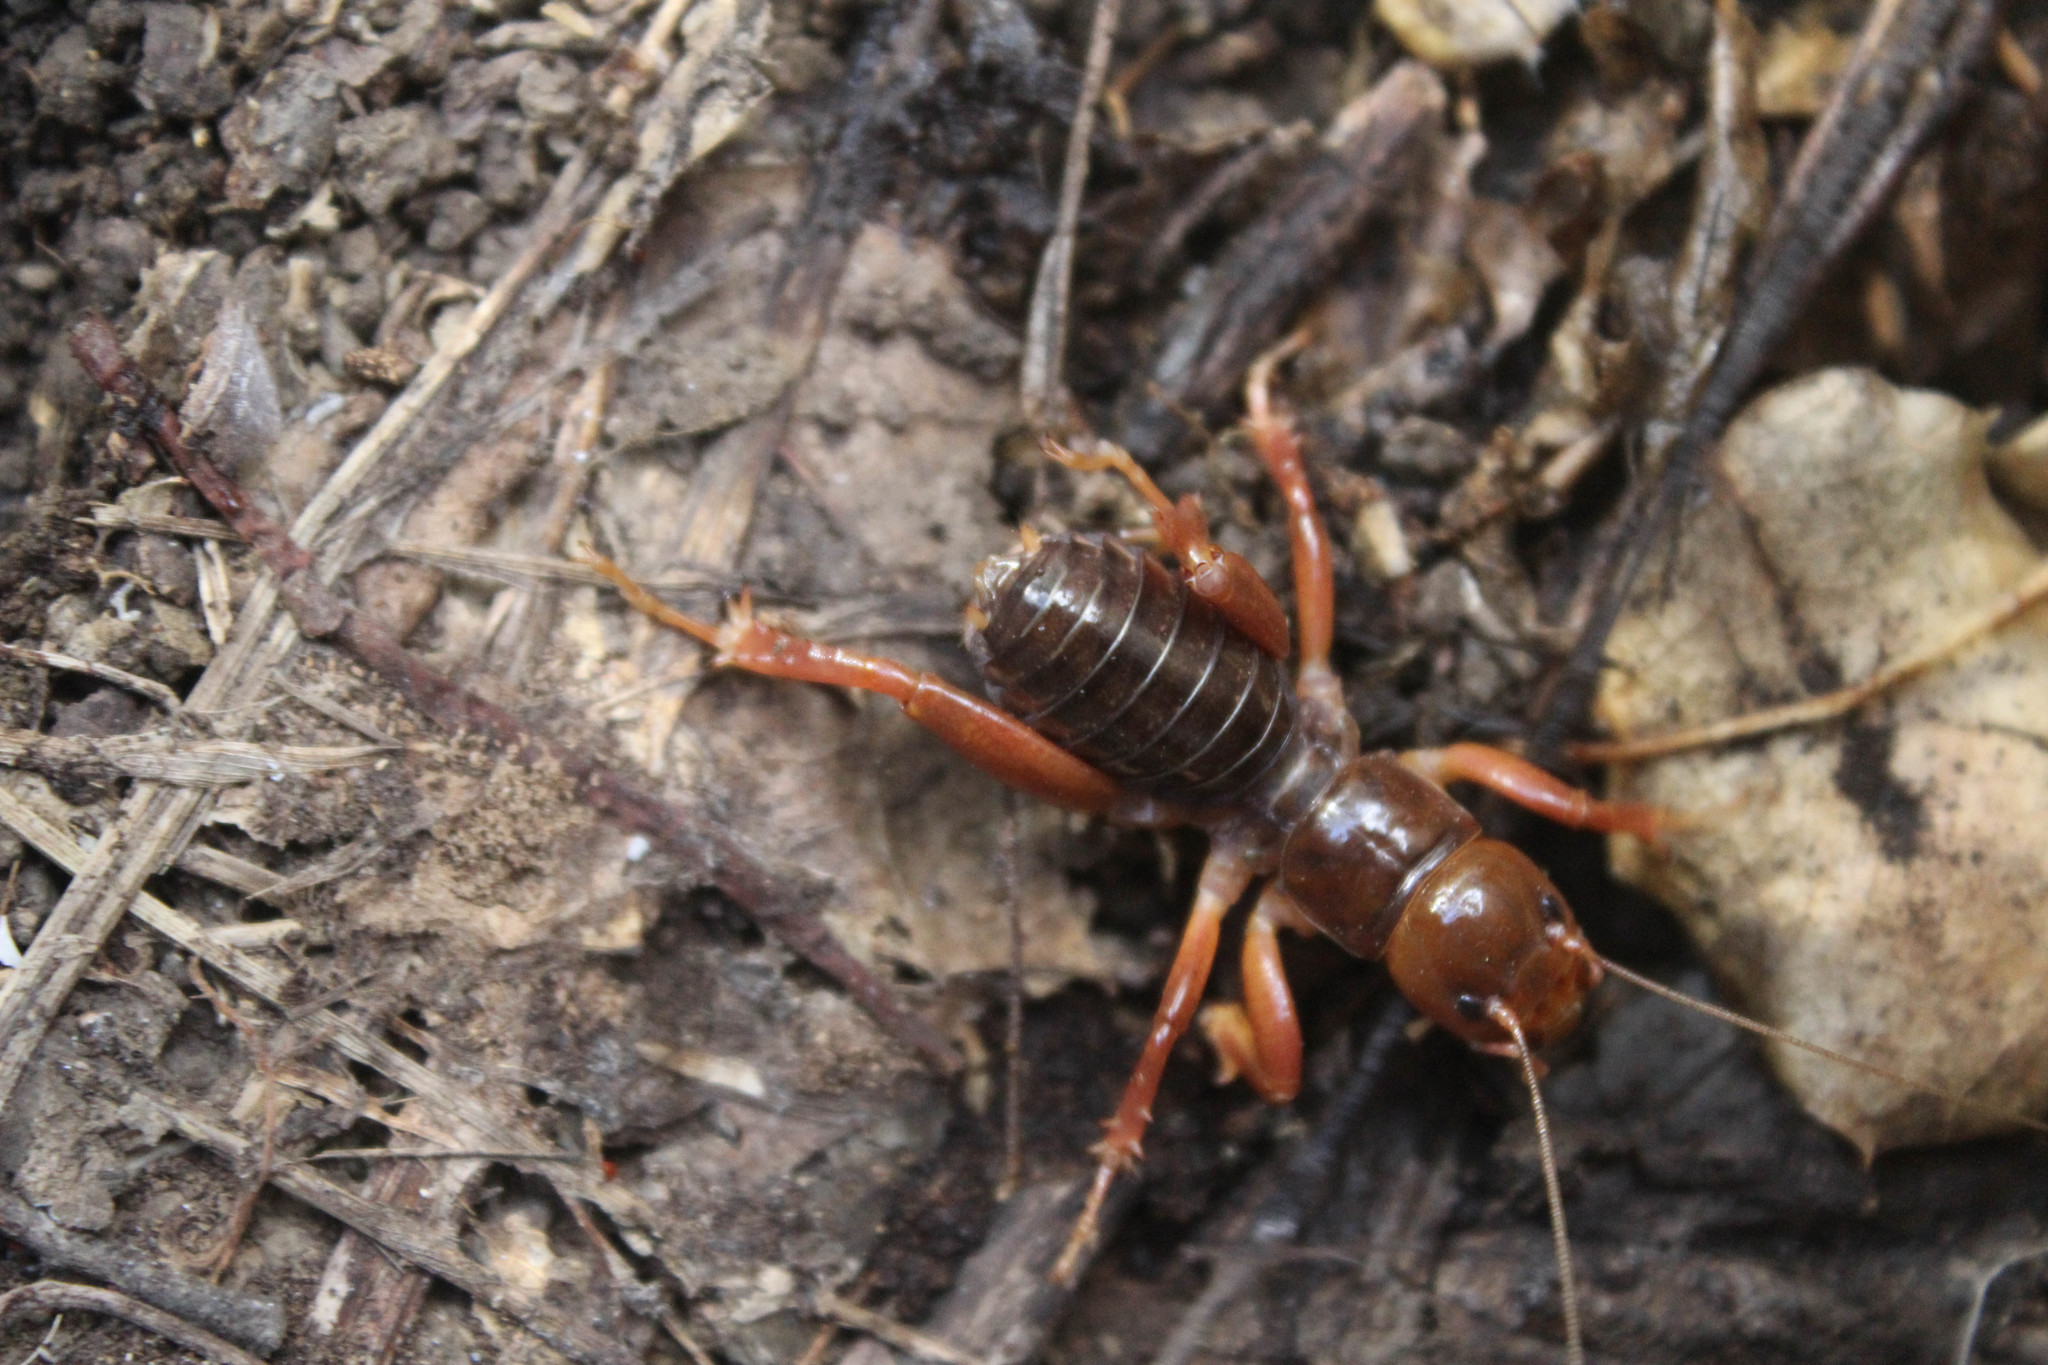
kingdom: Animalia
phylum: Arthropoda
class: Insecta
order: Orthoptera
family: Stenopelmatidae
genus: Ammopelmatus
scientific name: Ammopelmatus
